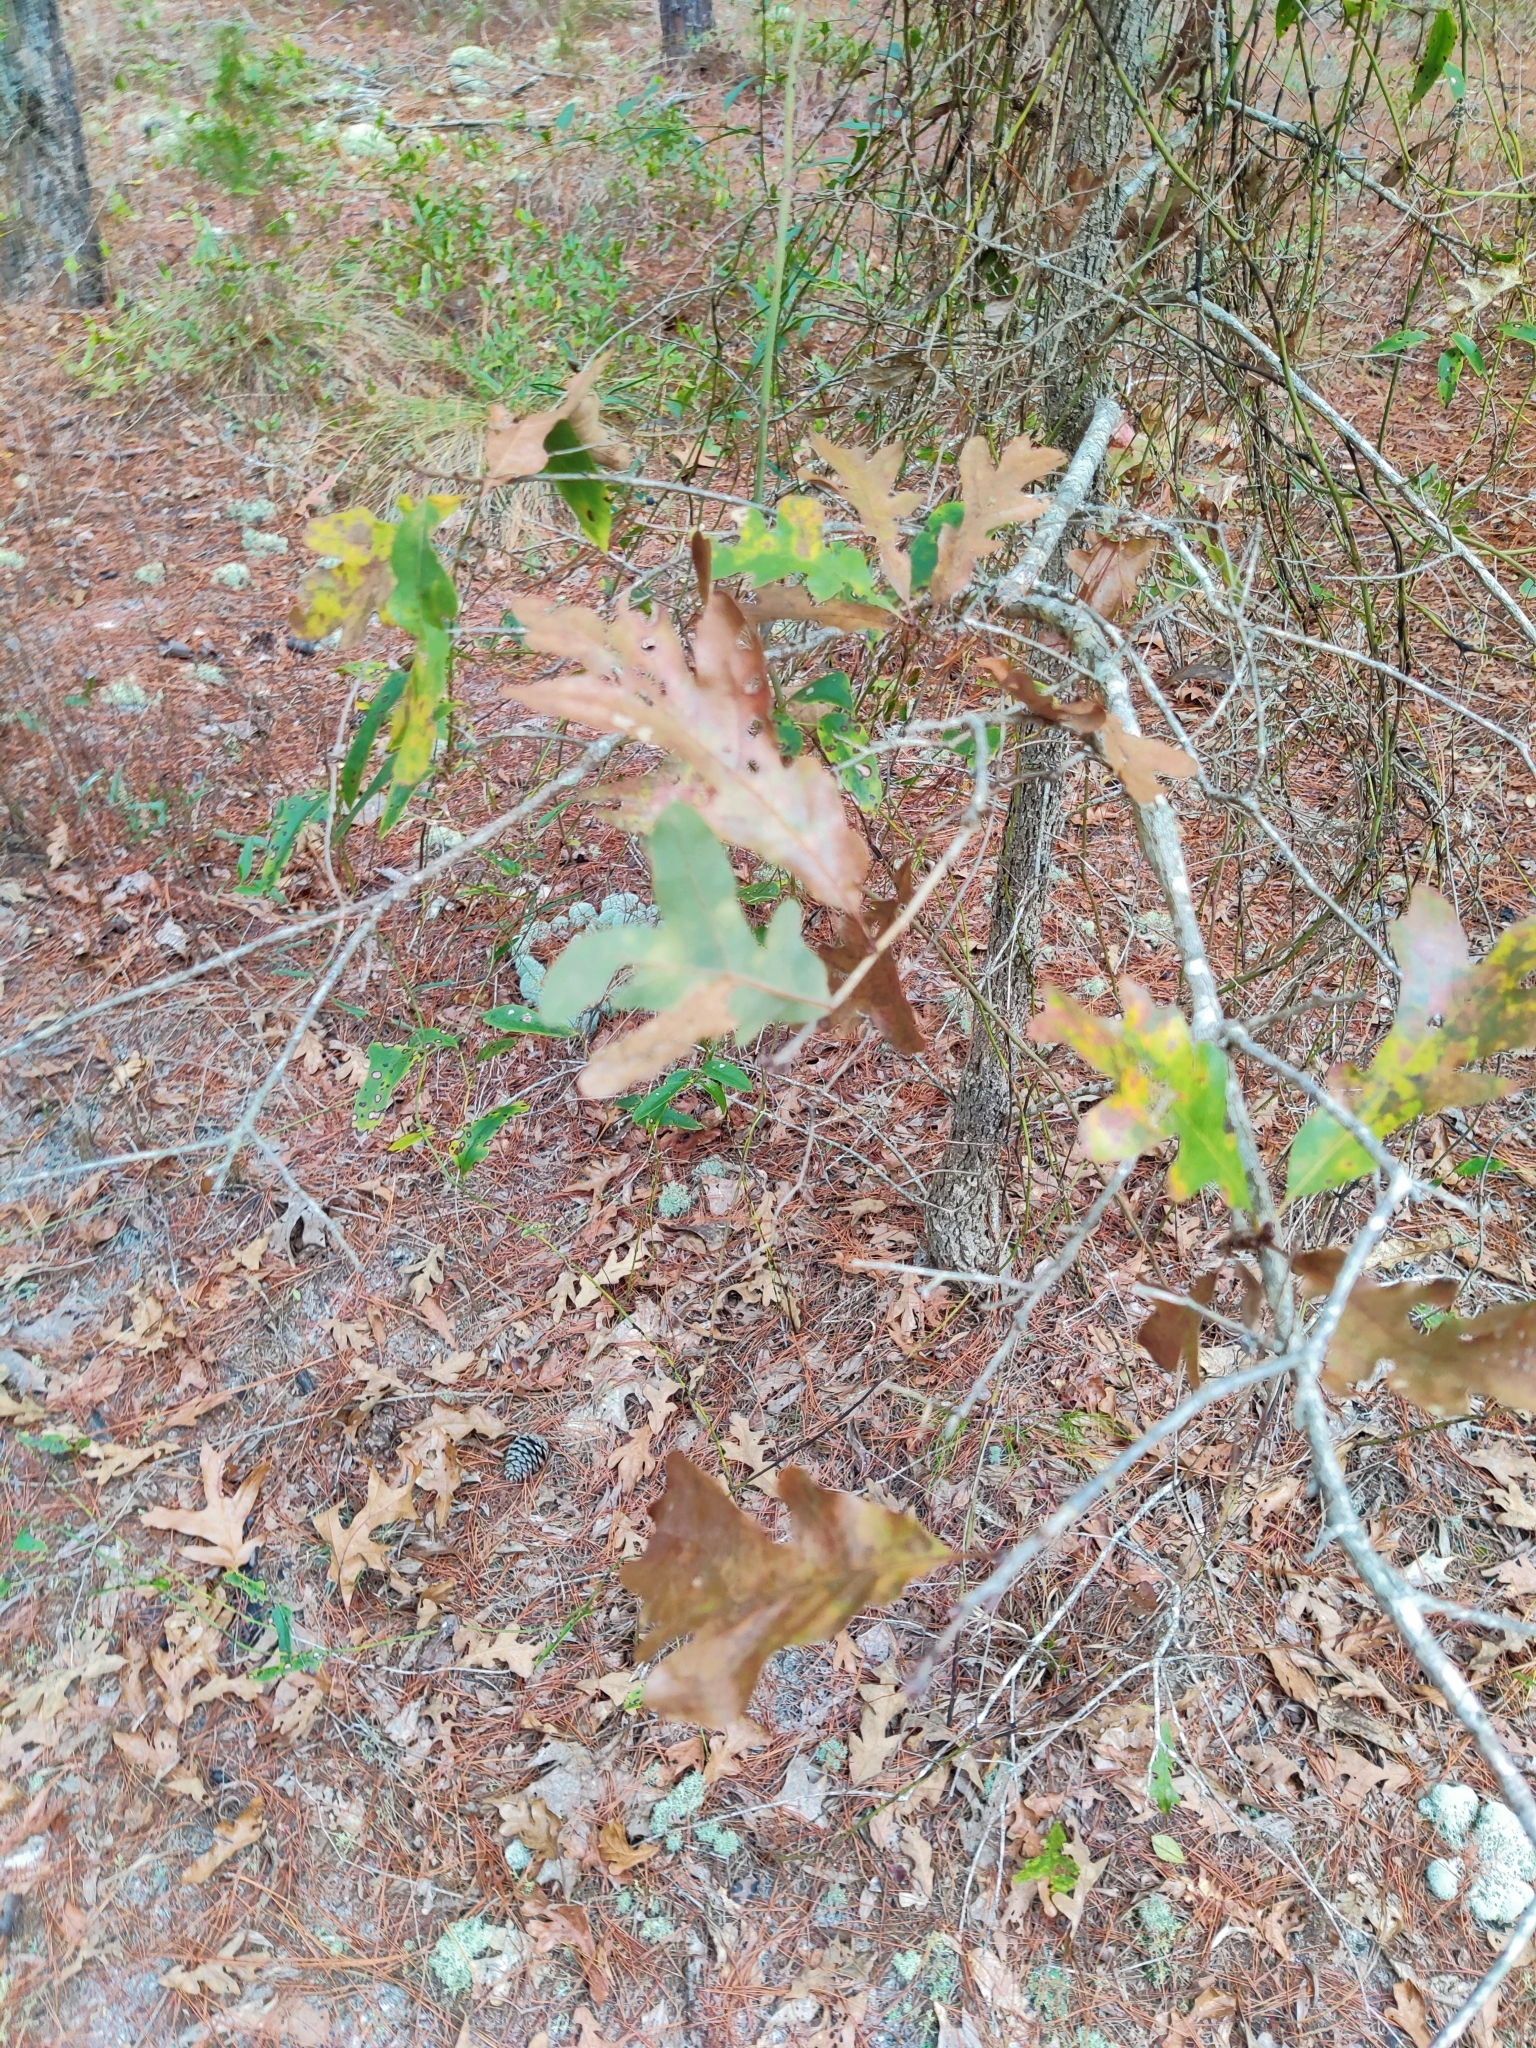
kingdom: Plantae
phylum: Tracheophyta
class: Magnoliopsida
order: Fagales
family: Fagaceae
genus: Quercus
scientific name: Quercus margaretiae
